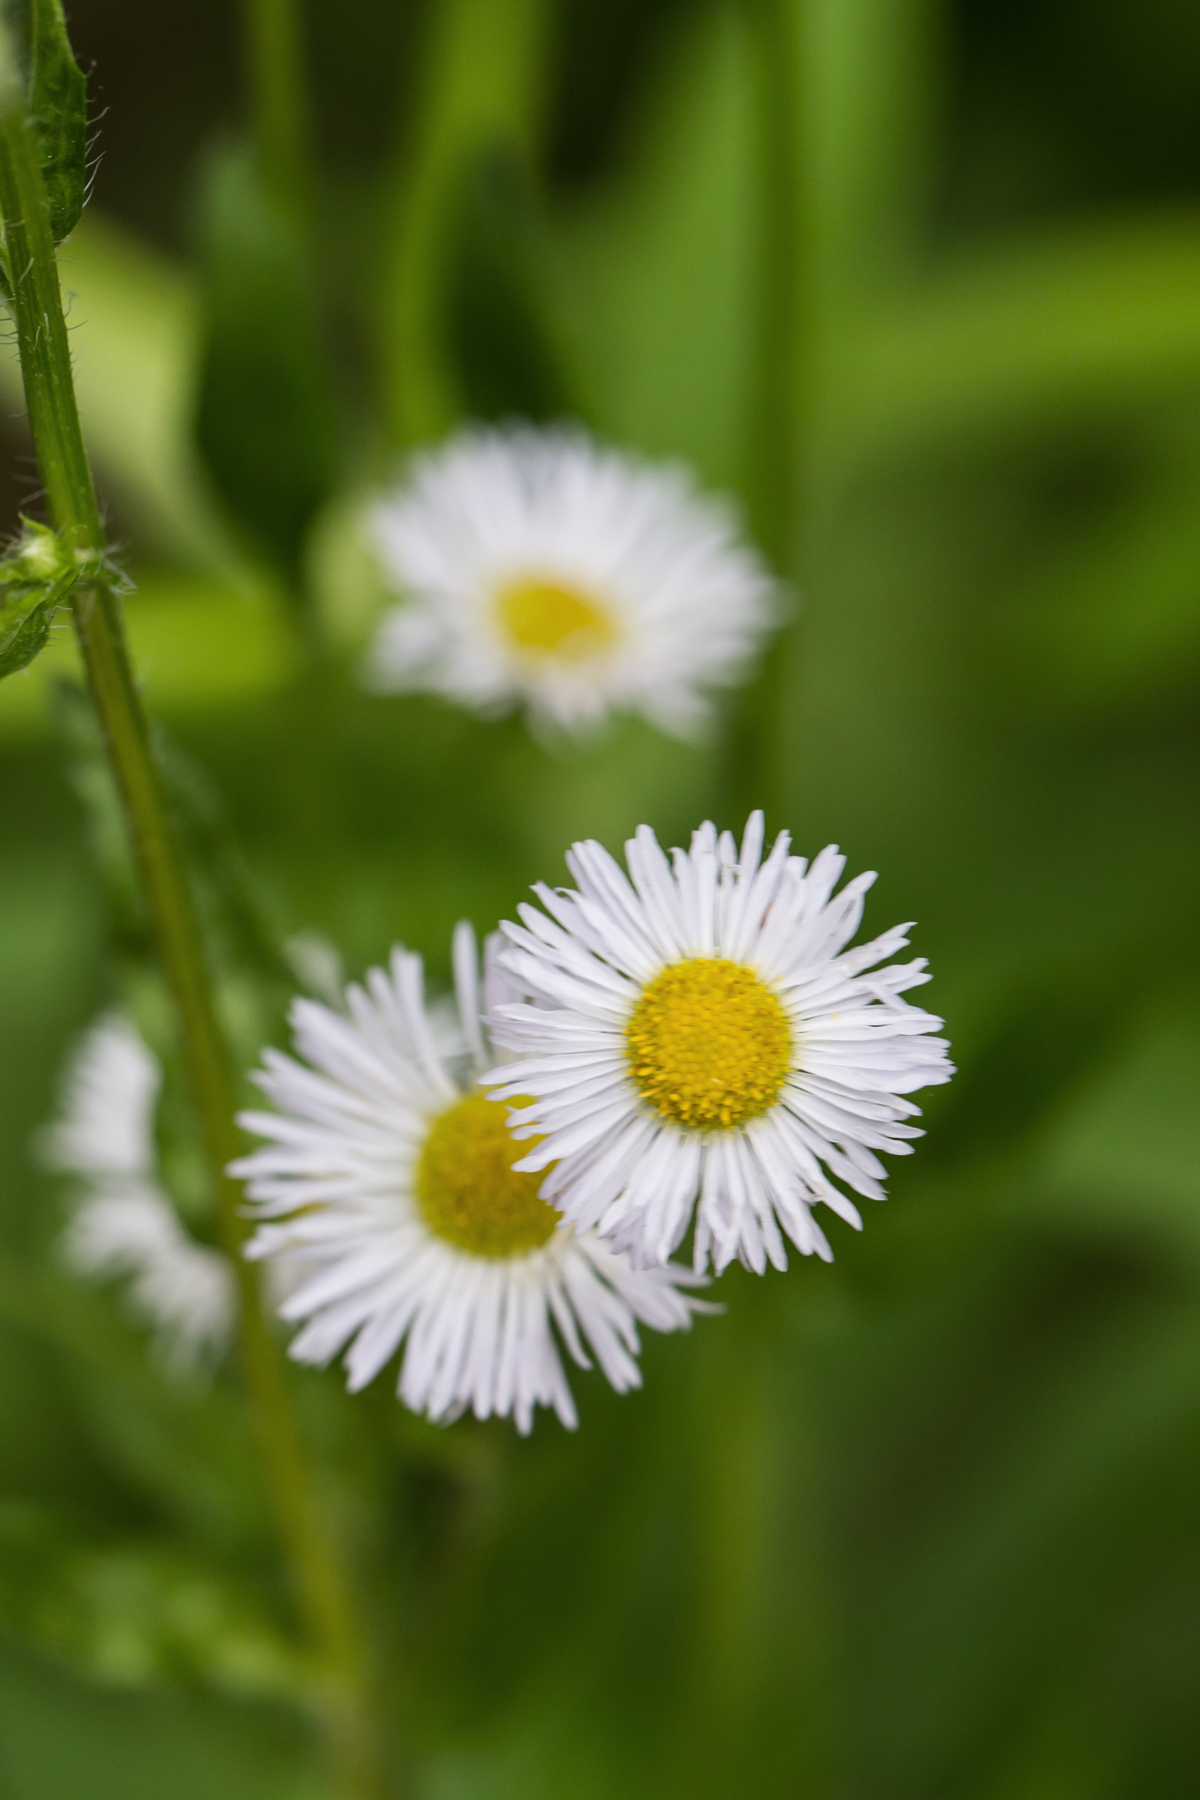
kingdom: Plantae
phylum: Tracheophyta
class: Magnoliopsida
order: Asterales
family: Asteraceae
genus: Erigeron
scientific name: Erigeron annuus
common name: Tall fleabane
